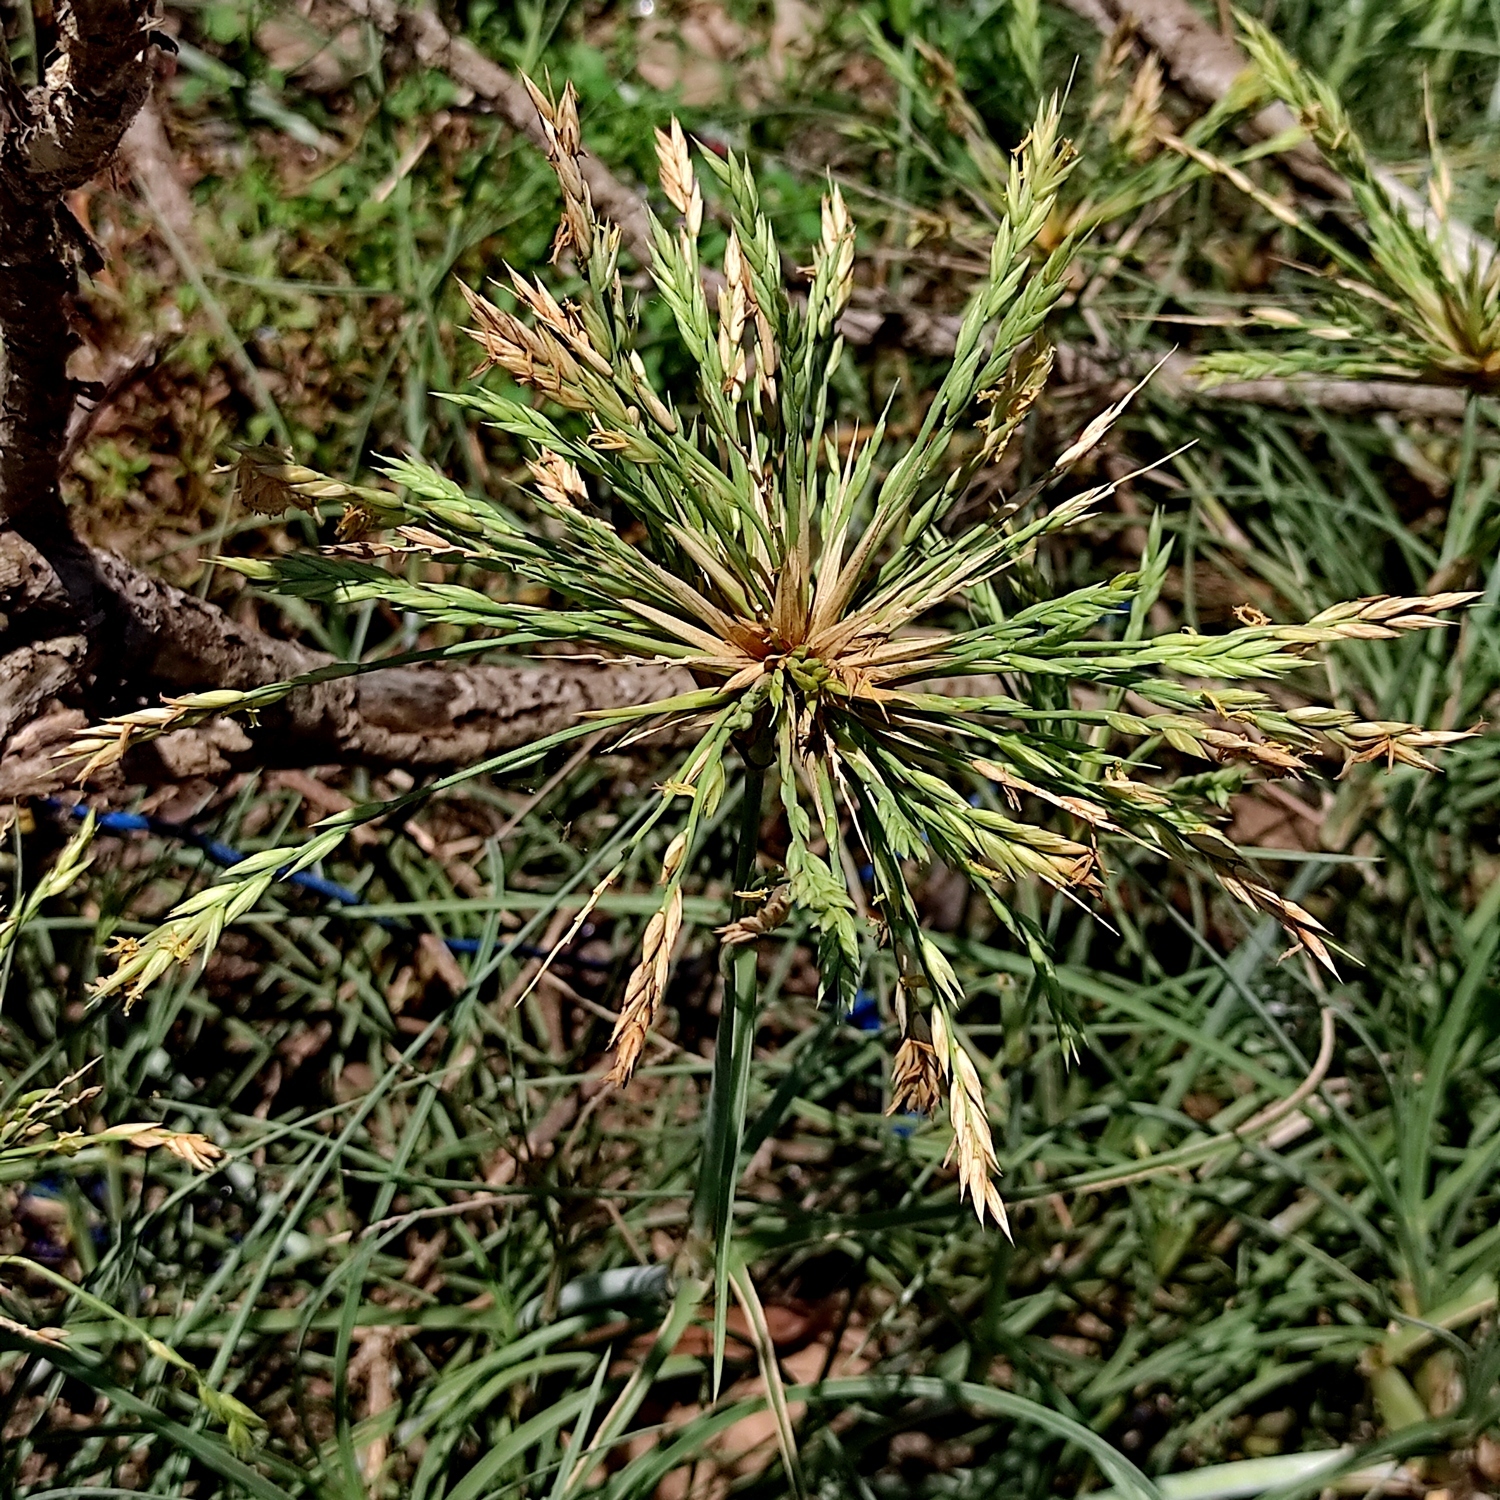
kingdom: Plantae
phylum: Tracheophyta
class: Liliopsida
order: Poales
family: Poaceae
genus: Spinifex
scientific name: Spinifex littoreus
